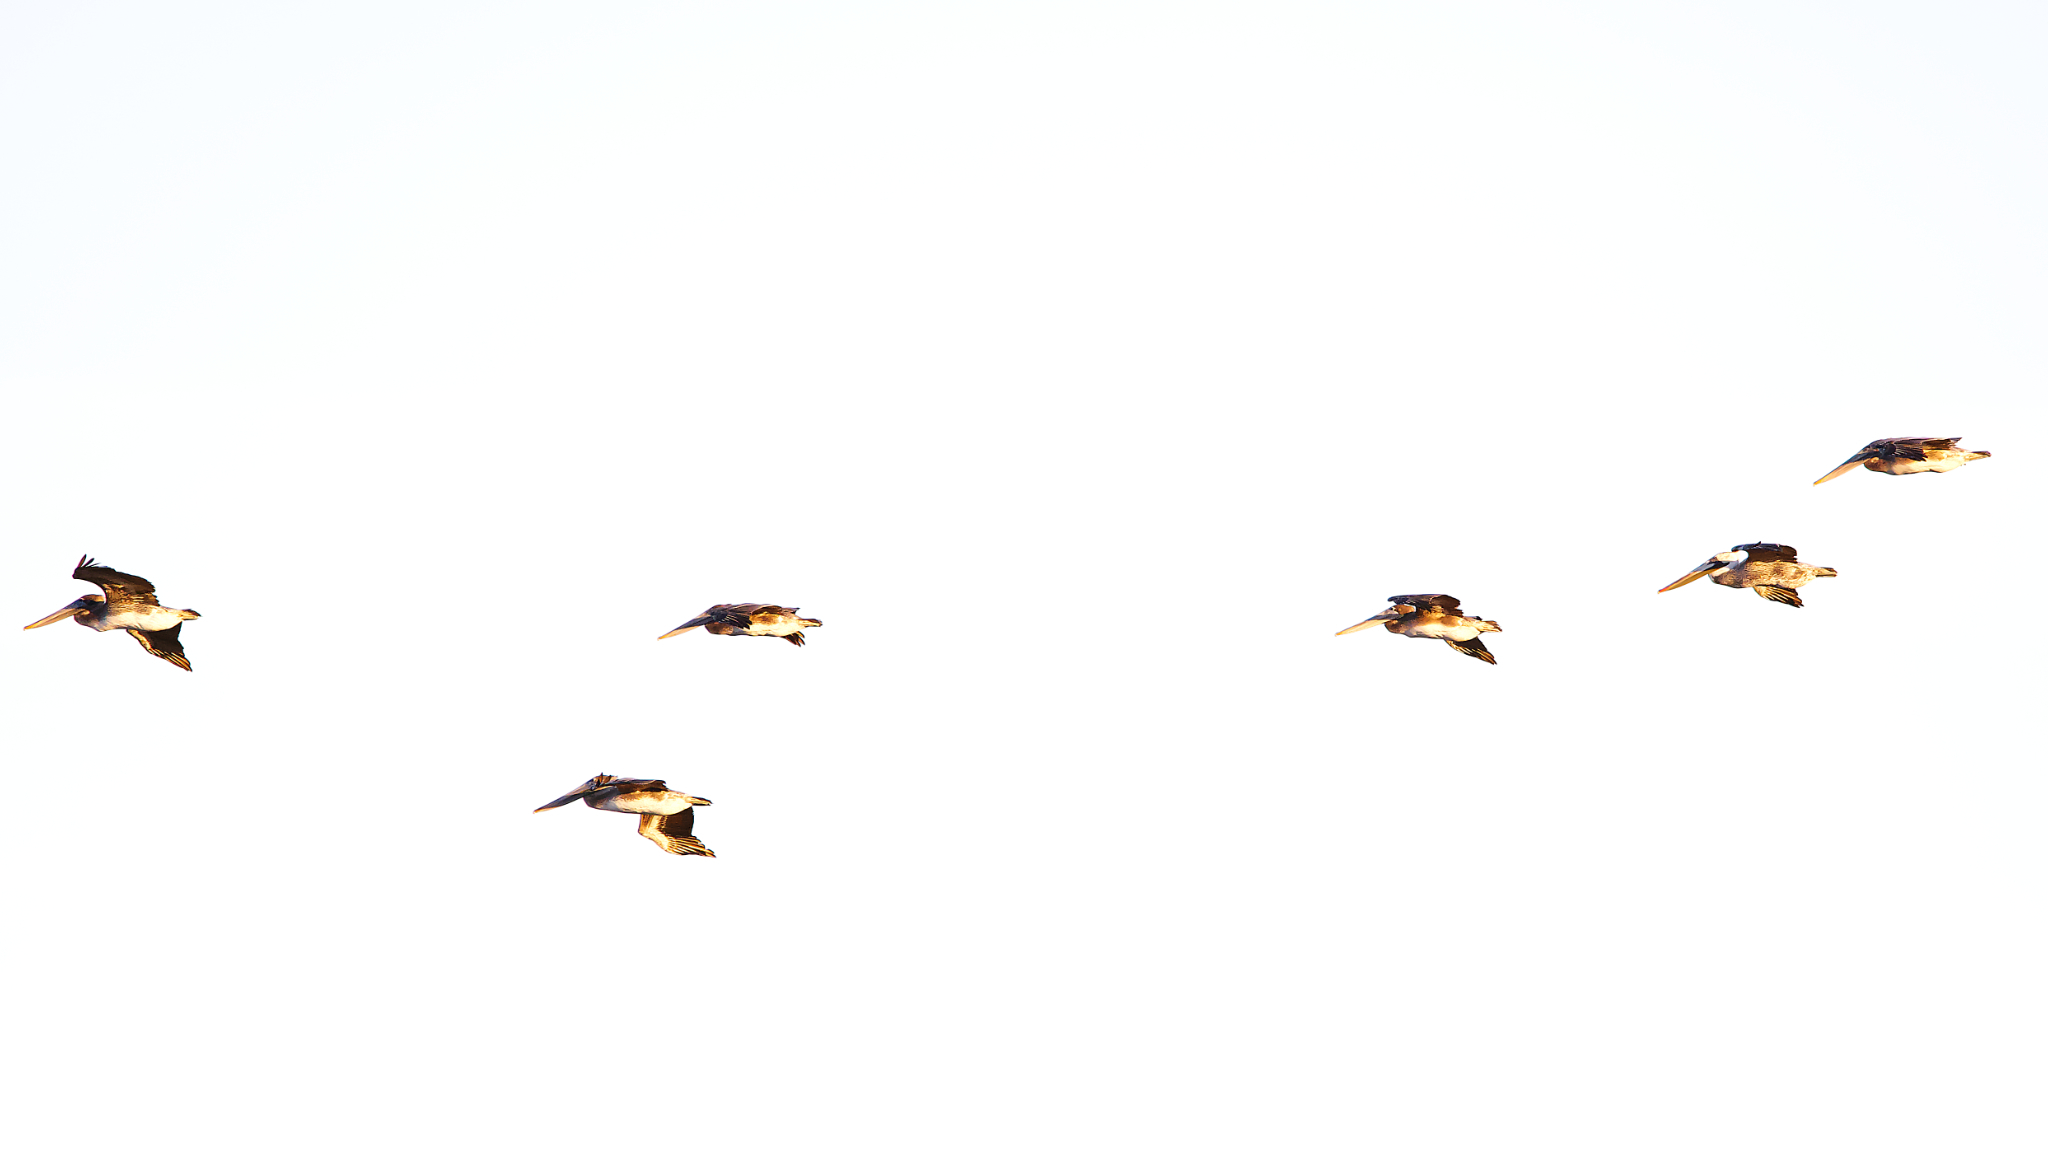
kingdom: Animalia
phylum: Chordata
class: Aves
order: Pelecaniformes
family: Pelecanidae
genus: Pelecanus
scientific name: Pelecanus occidentalis
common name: Brown pelican
